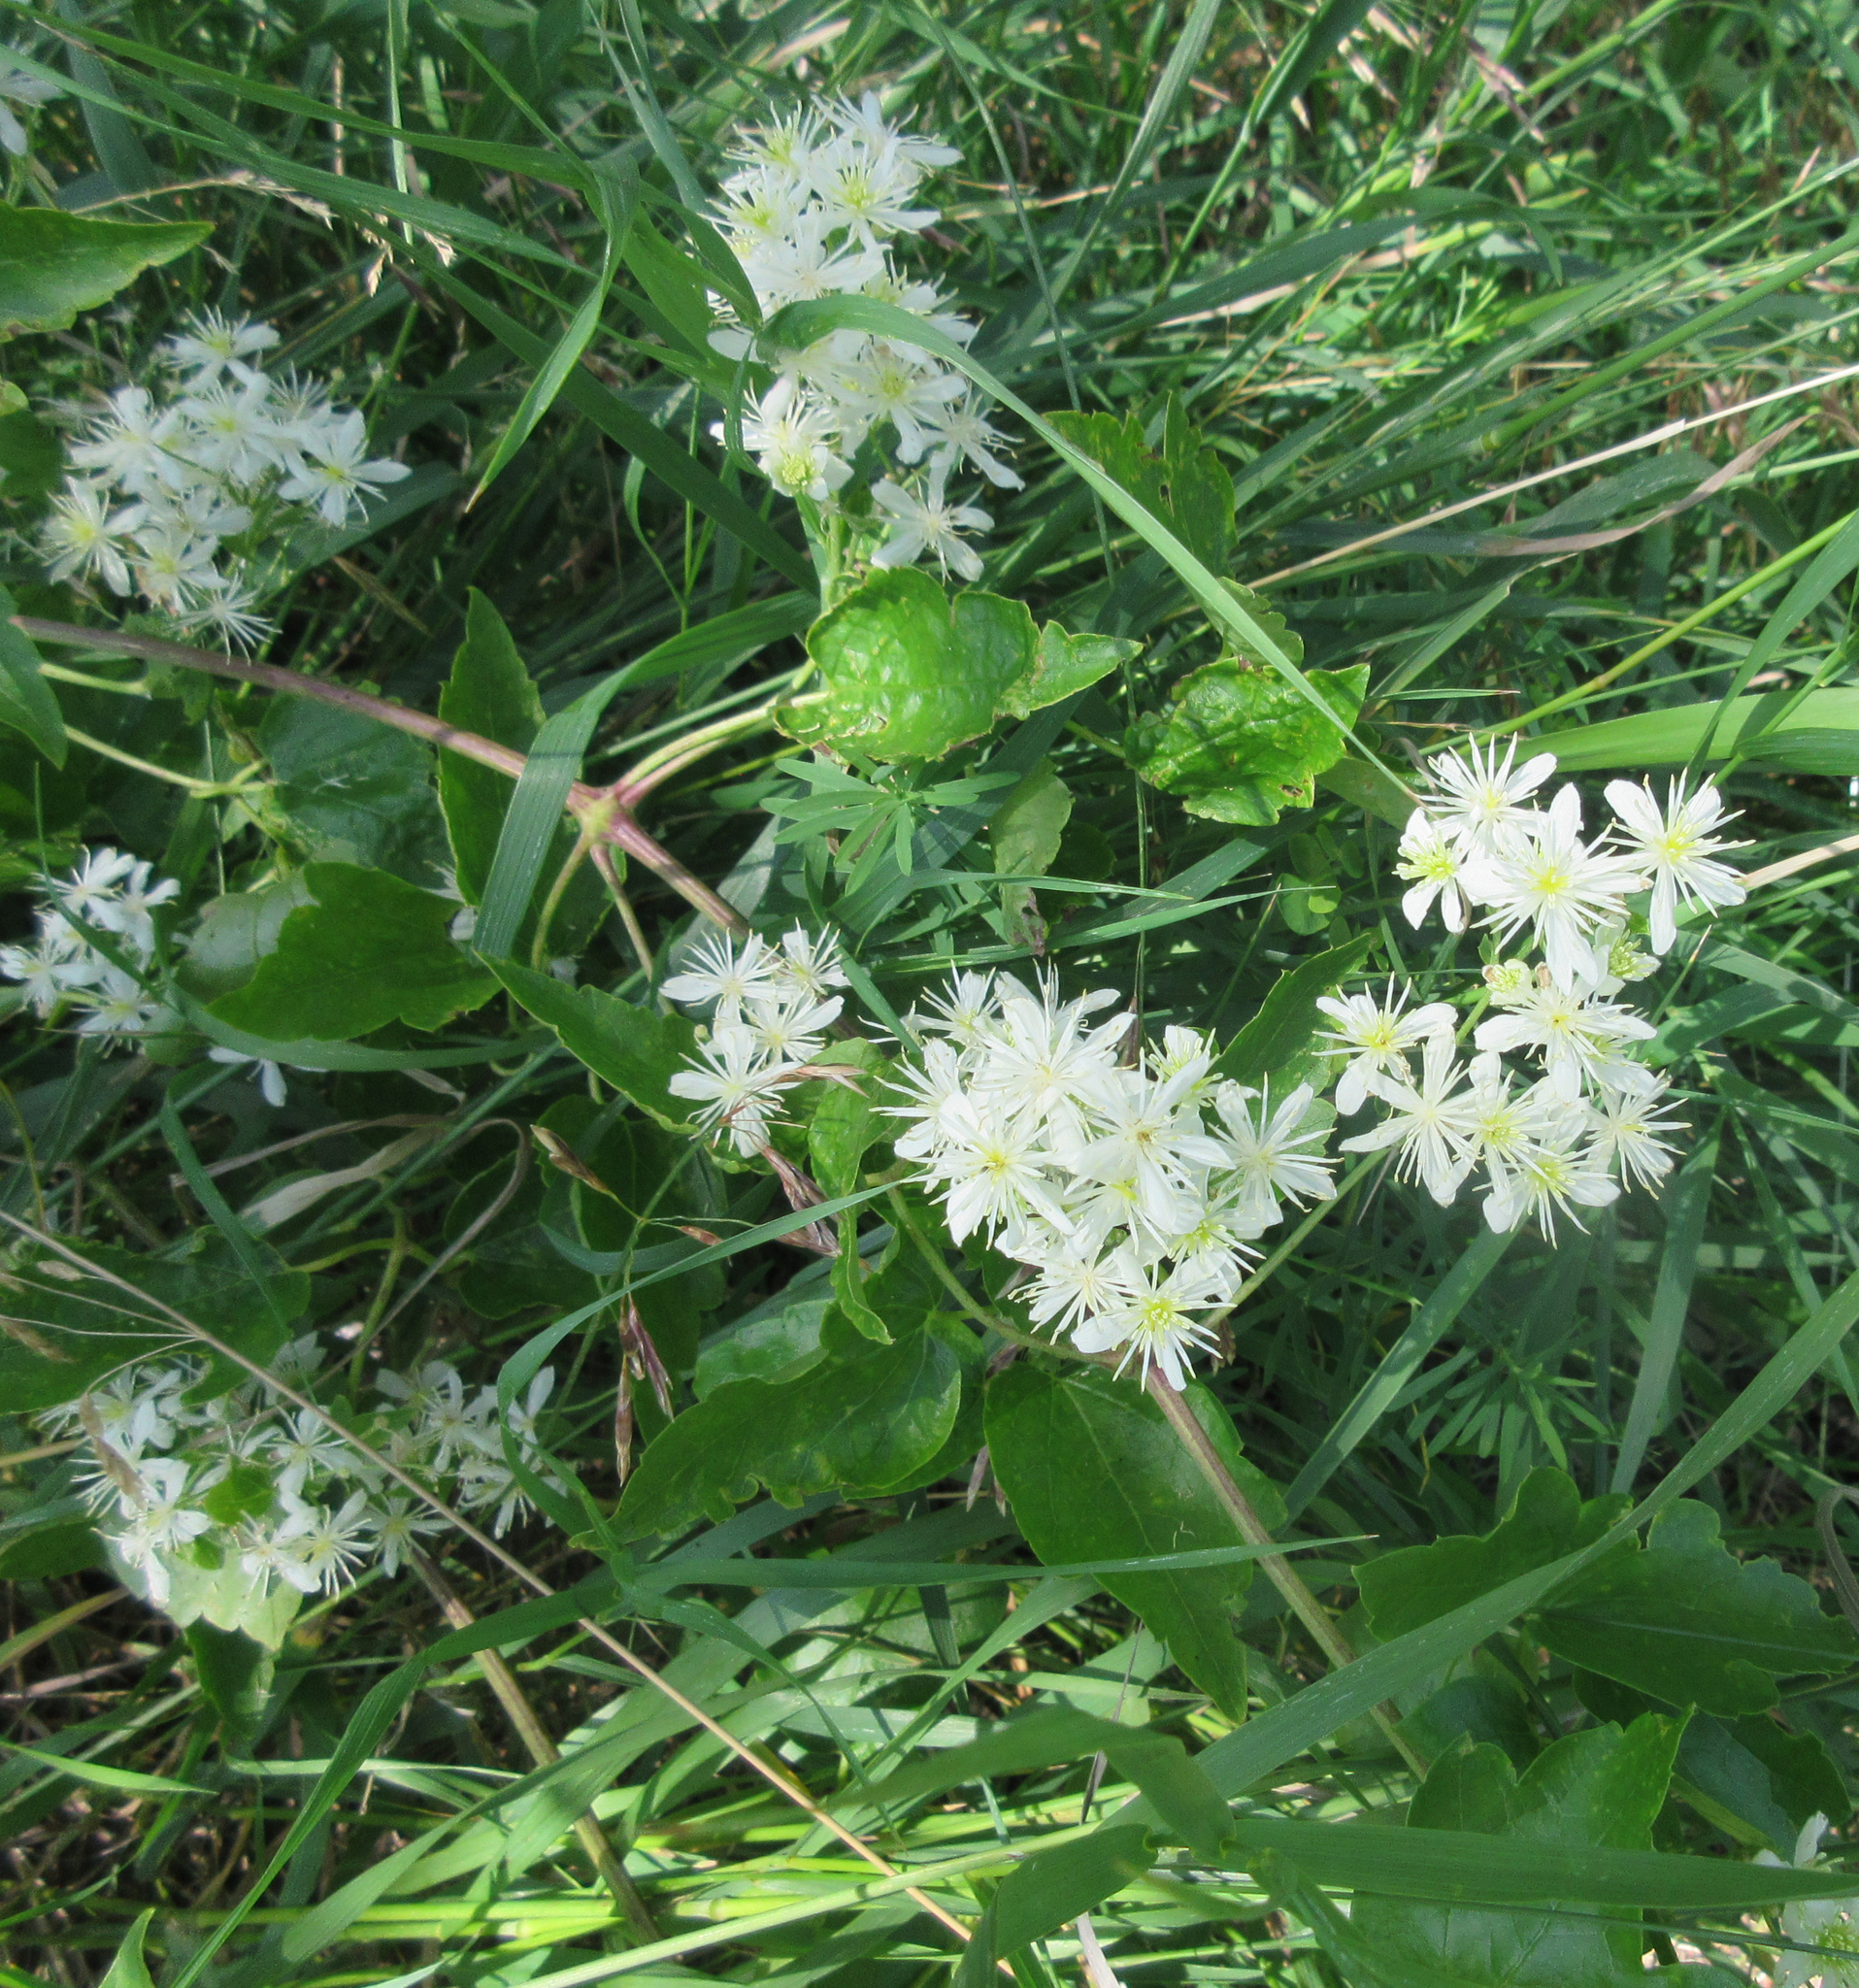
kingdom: Plantae
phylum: Tracheophyta
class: Magnoliopsida
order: Ranunculales
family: Ranunculaceae
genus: Clematis
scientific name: Clematis ligusticifolia
